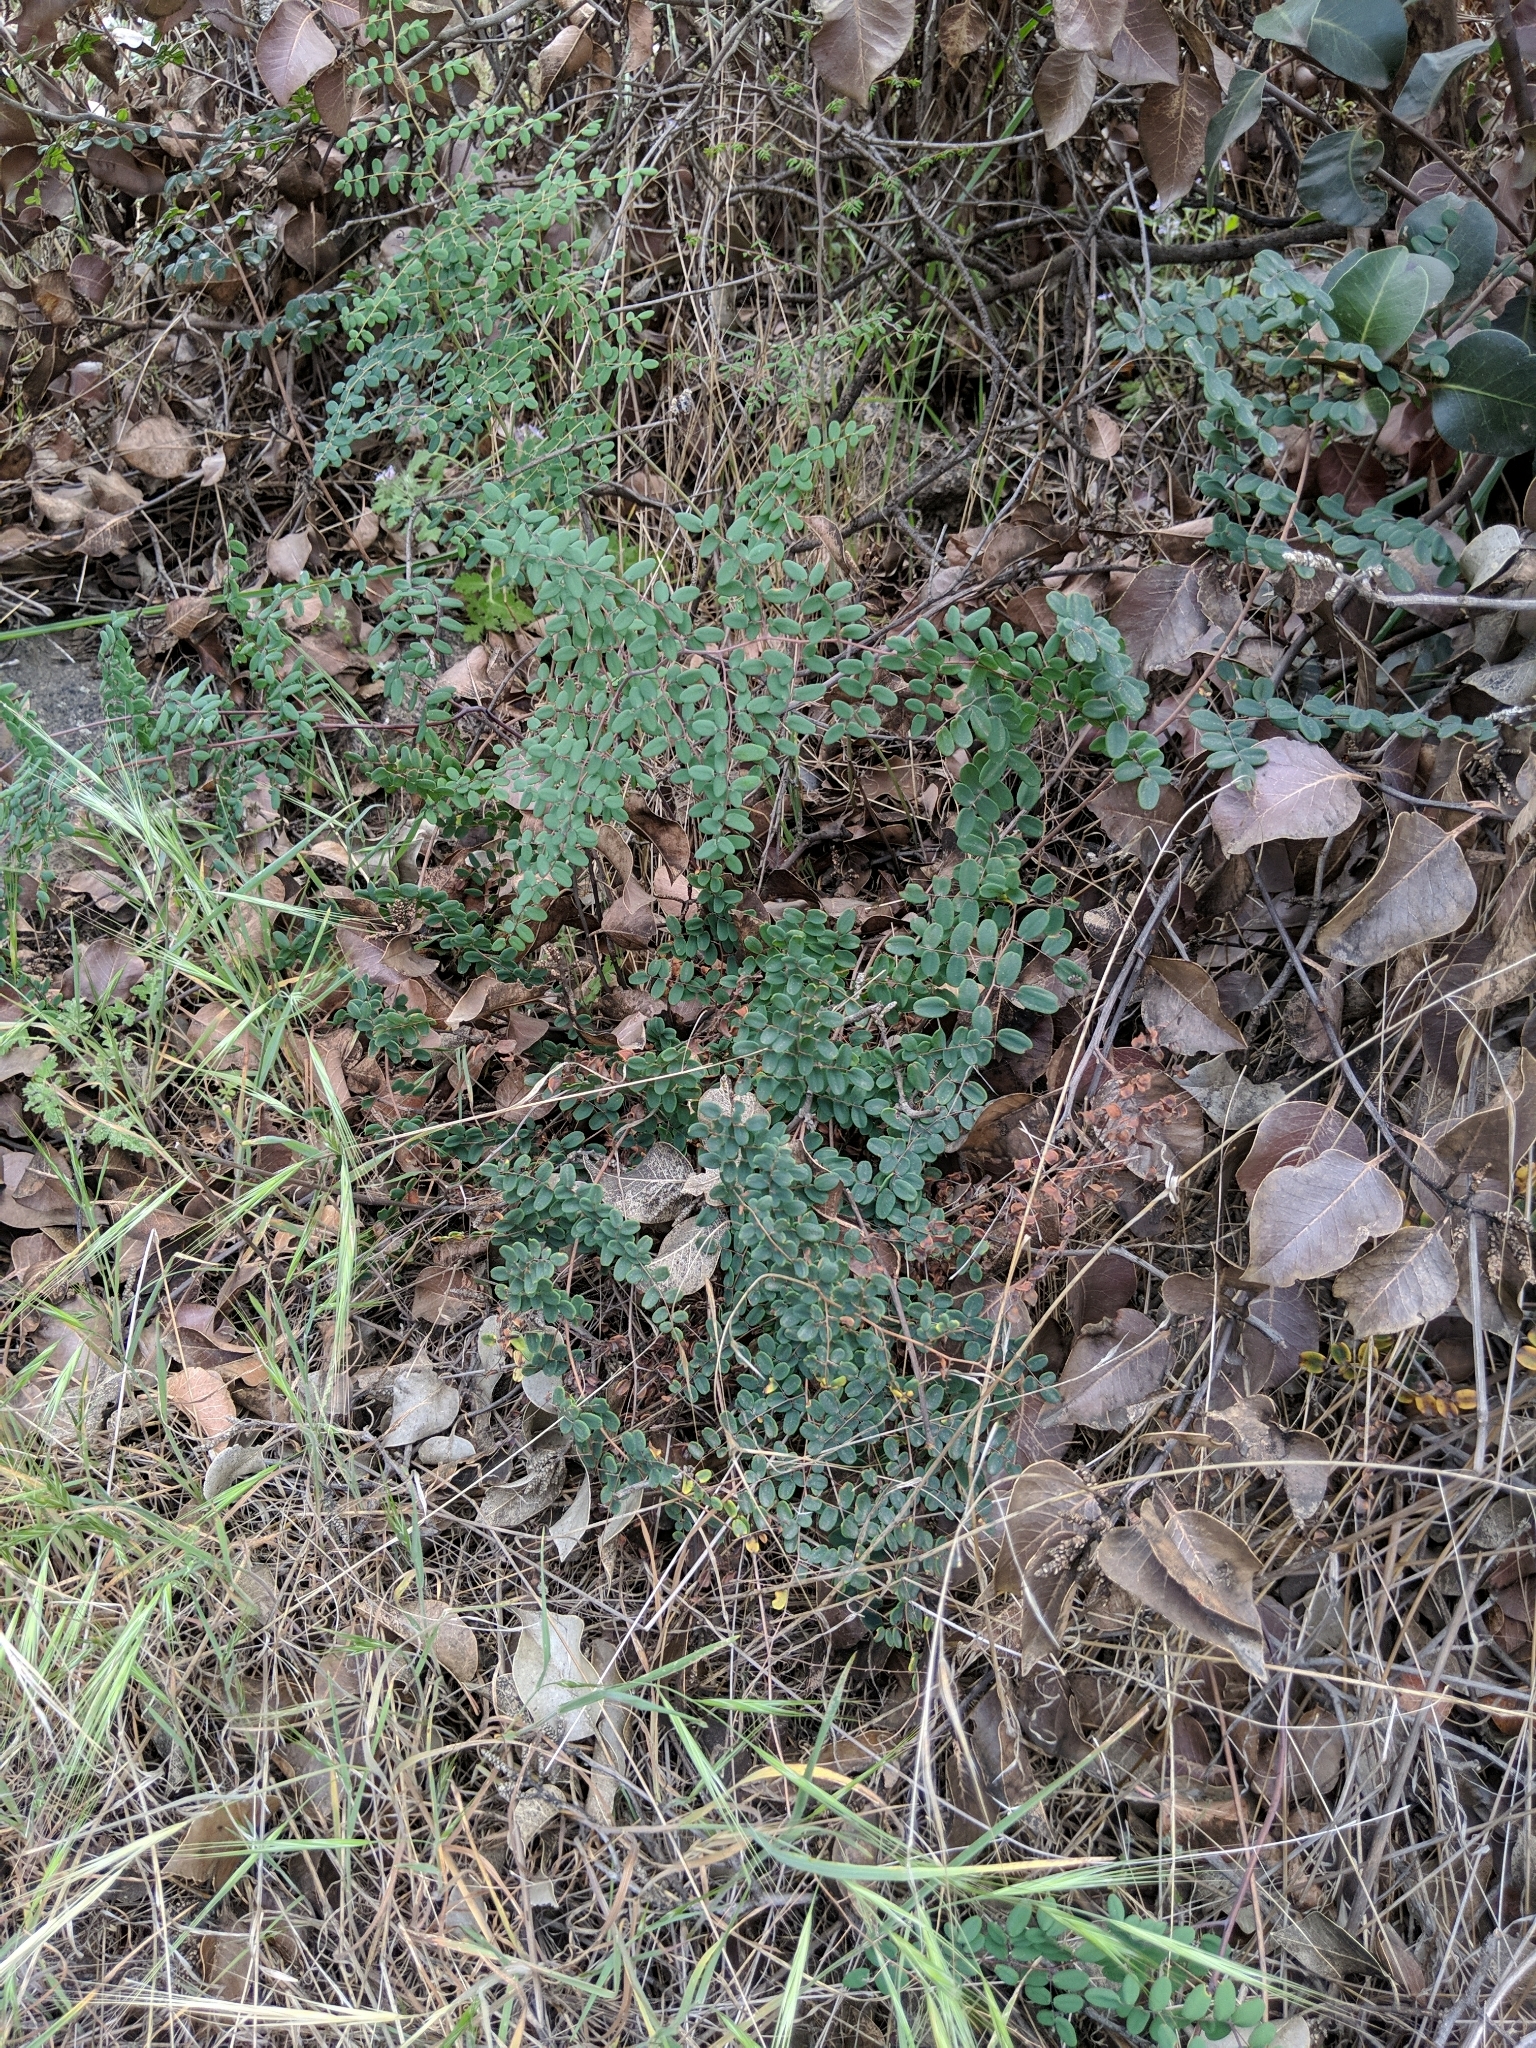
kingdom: Plantae
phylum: Tracheophyta
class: Polypodiopsida
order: Polypodiales
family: Pteridaceae
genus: Pellaea
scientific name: Pellaea andromedifolia
